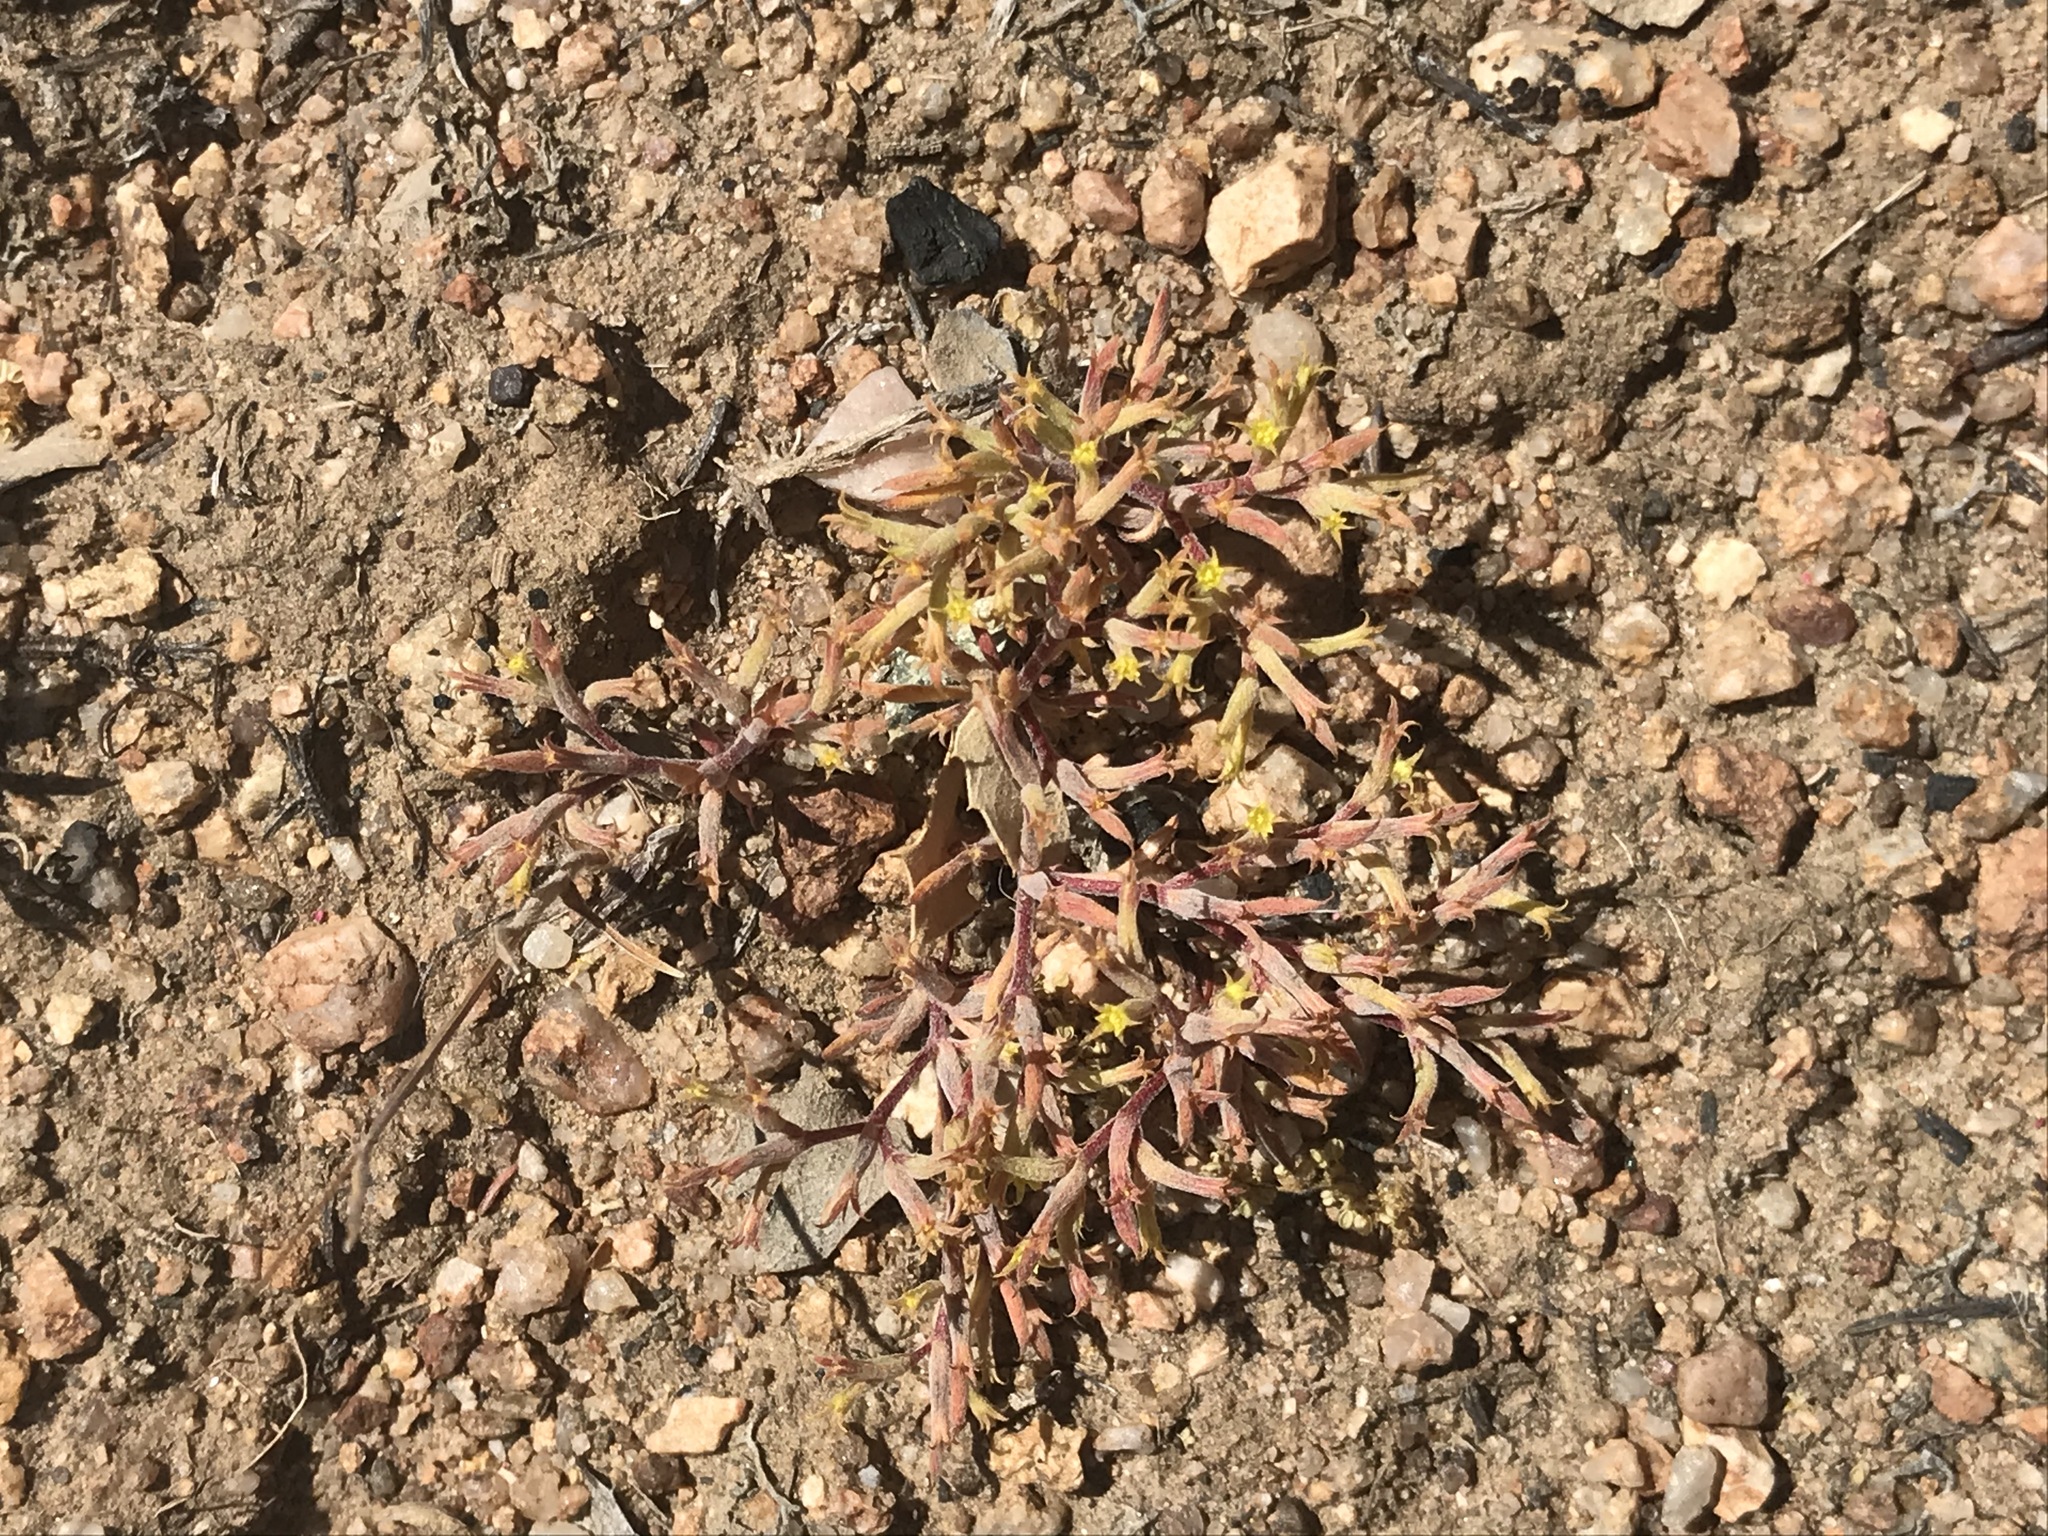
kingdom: Plantae
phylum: Tracheophyta
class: Magnoliopsida
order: Caryophyllales
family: Polygonaceae
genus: Chorizanthe
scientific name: Chorizanthe watsonii
